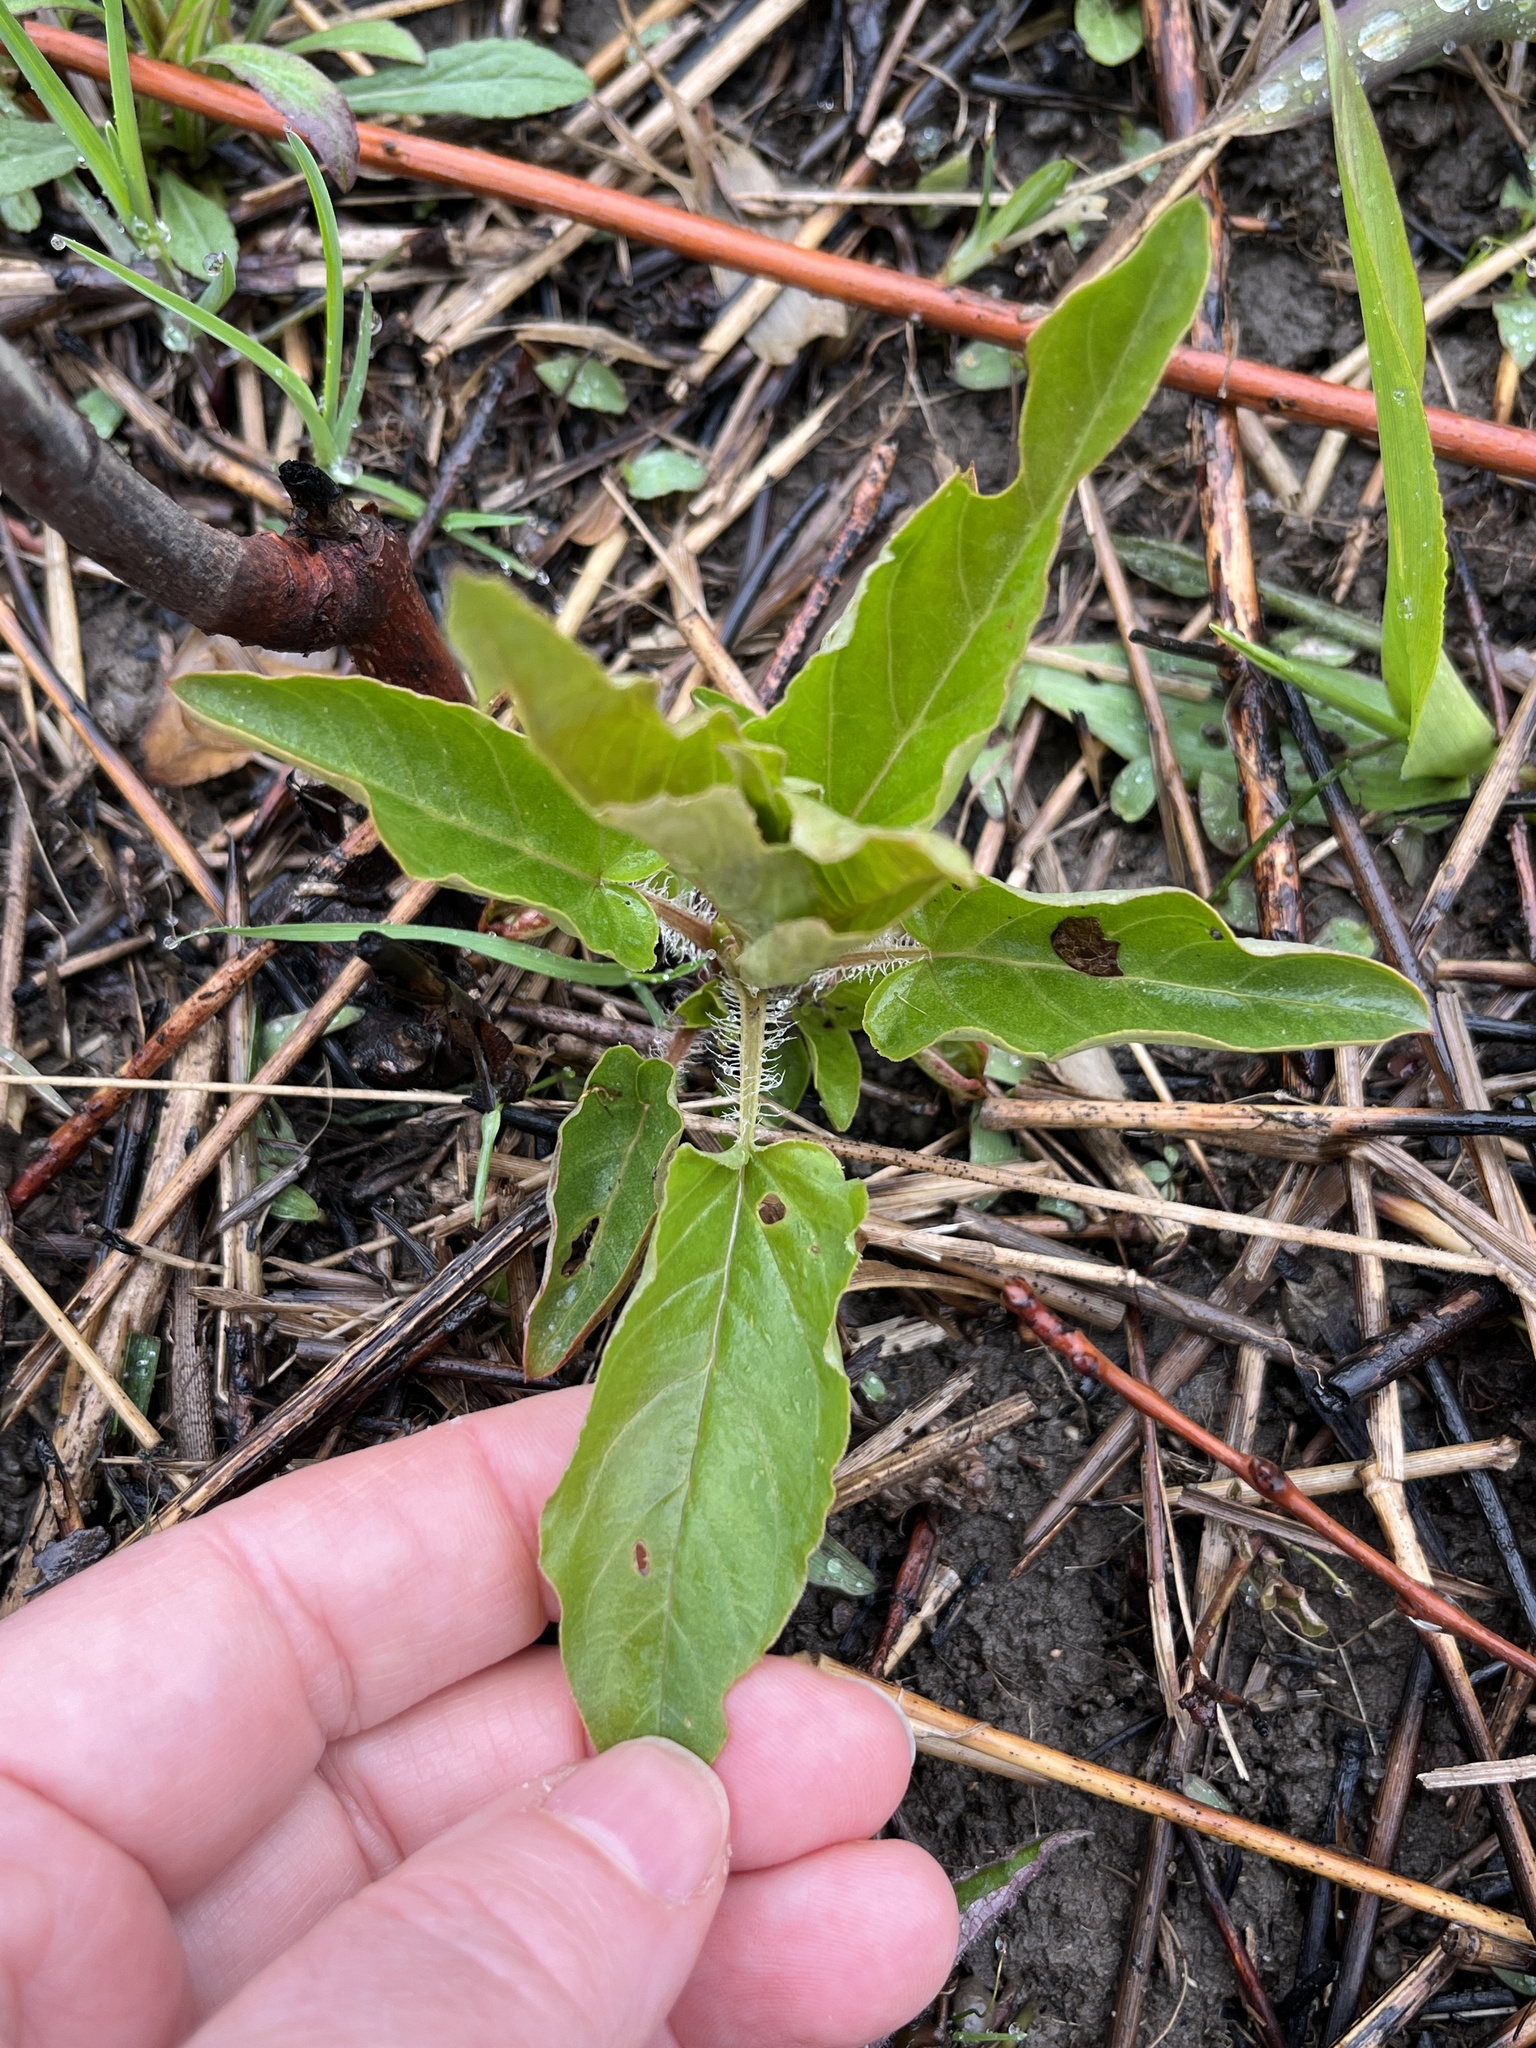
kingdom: Plantae
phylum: Tracheophyta
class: Magnoliopsida
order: Ericales
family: Primulaceae
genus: Lysimachia
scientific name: Lysimachia ciliata
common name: Fringed loosestrife
